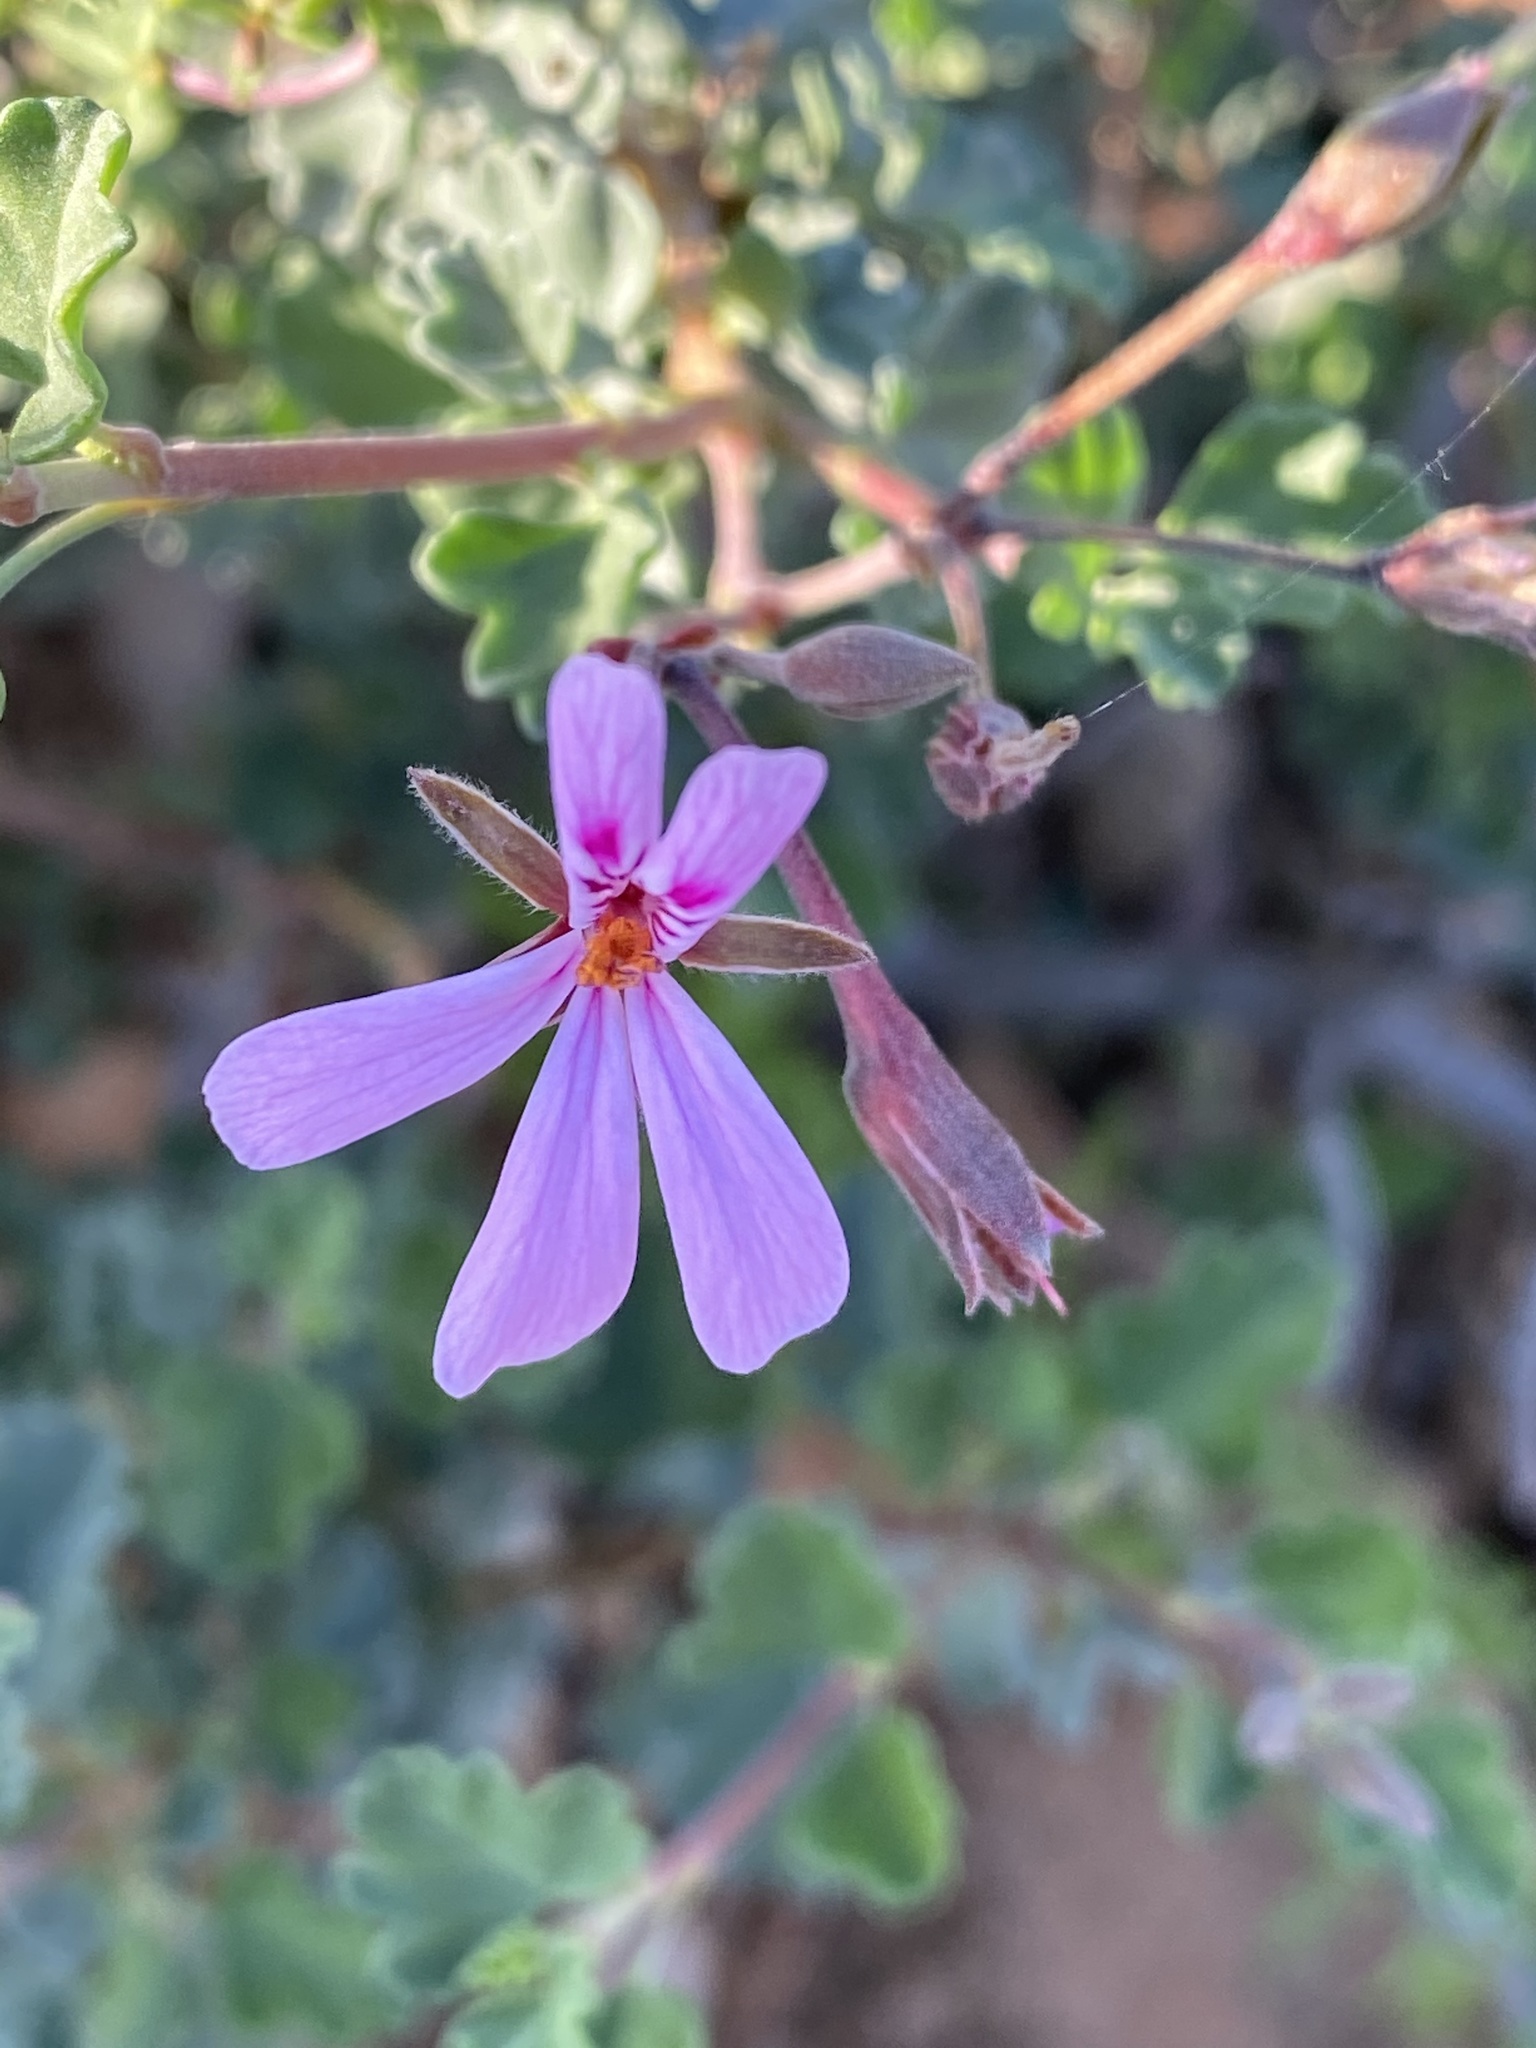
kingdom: Plantae
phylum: Tracheophyta
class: Magnoliopsida
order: Geraniales
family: Geraniaceae
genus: Pelargonium
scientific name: Pelargonium exstipulatum
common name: Soft-leaf trifid pelargonium
